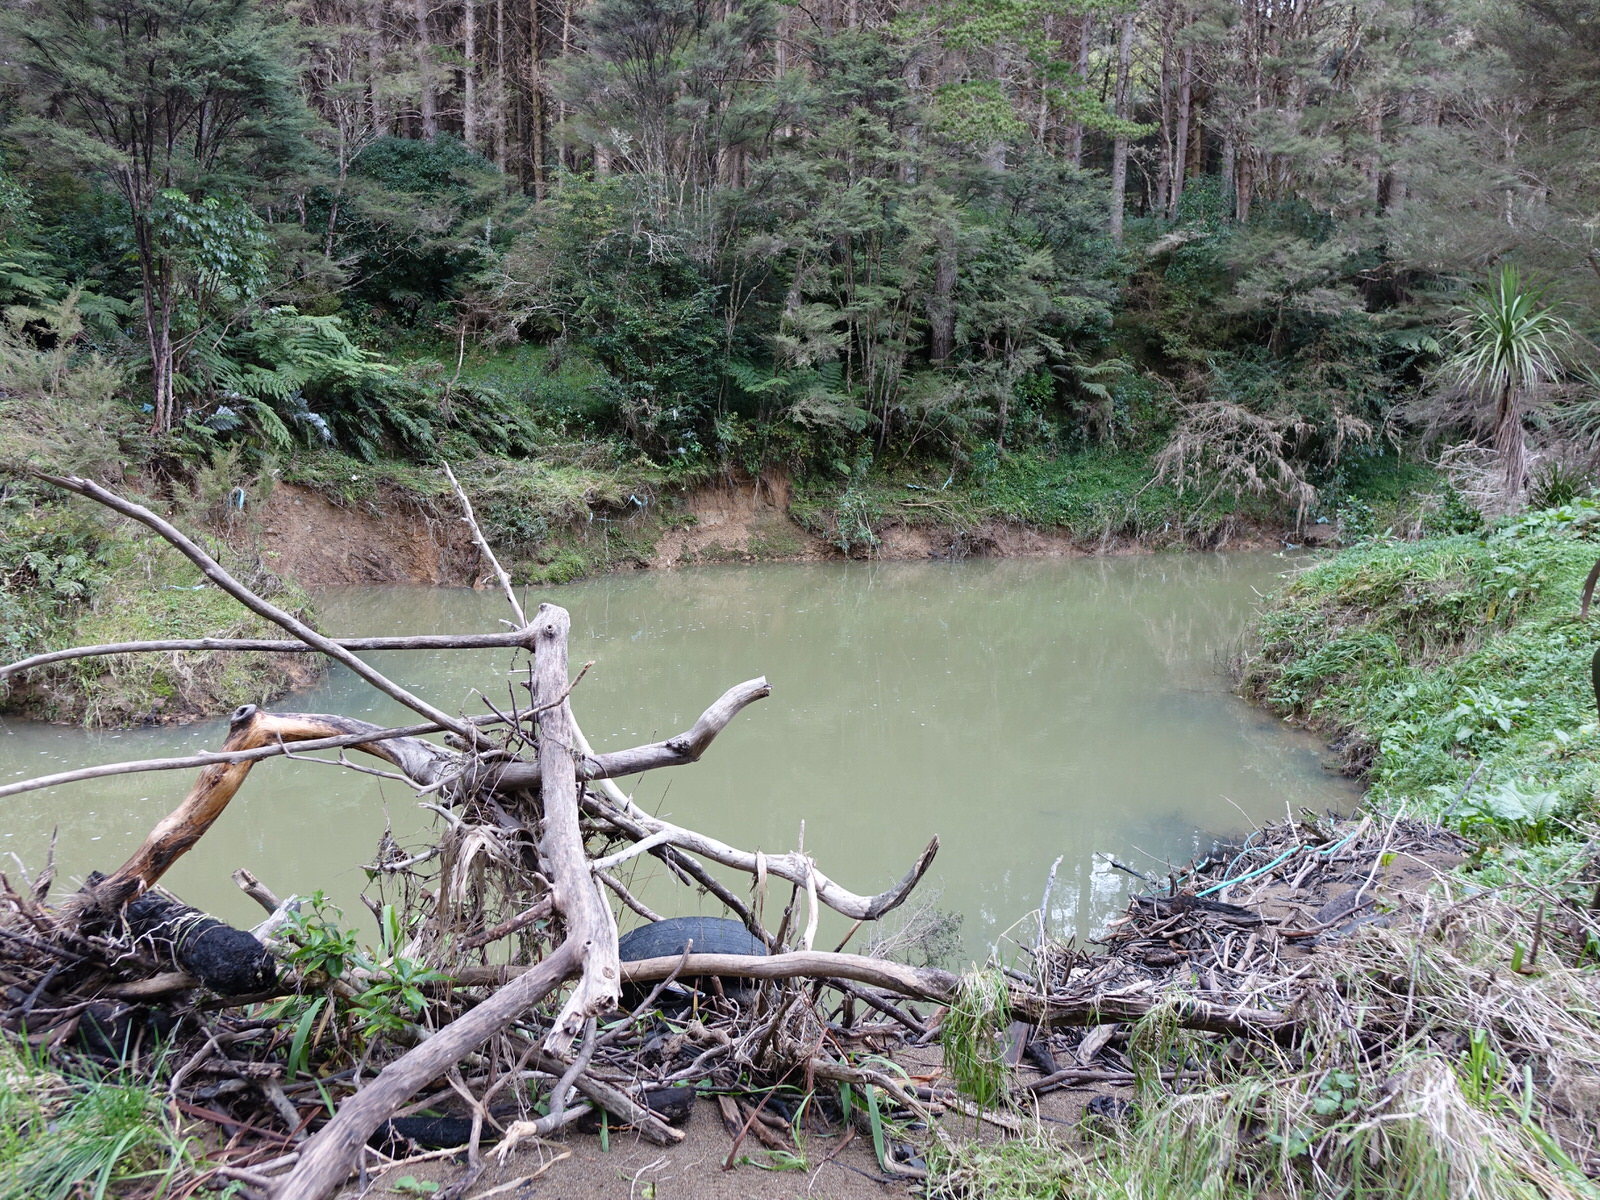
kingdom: Animalia
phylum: Mollusca
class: Bivalvia
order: Unionida
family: Hyriidae
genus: Echyridella
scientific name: Echyridella menziesii
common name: New zealand freshwater mussel
